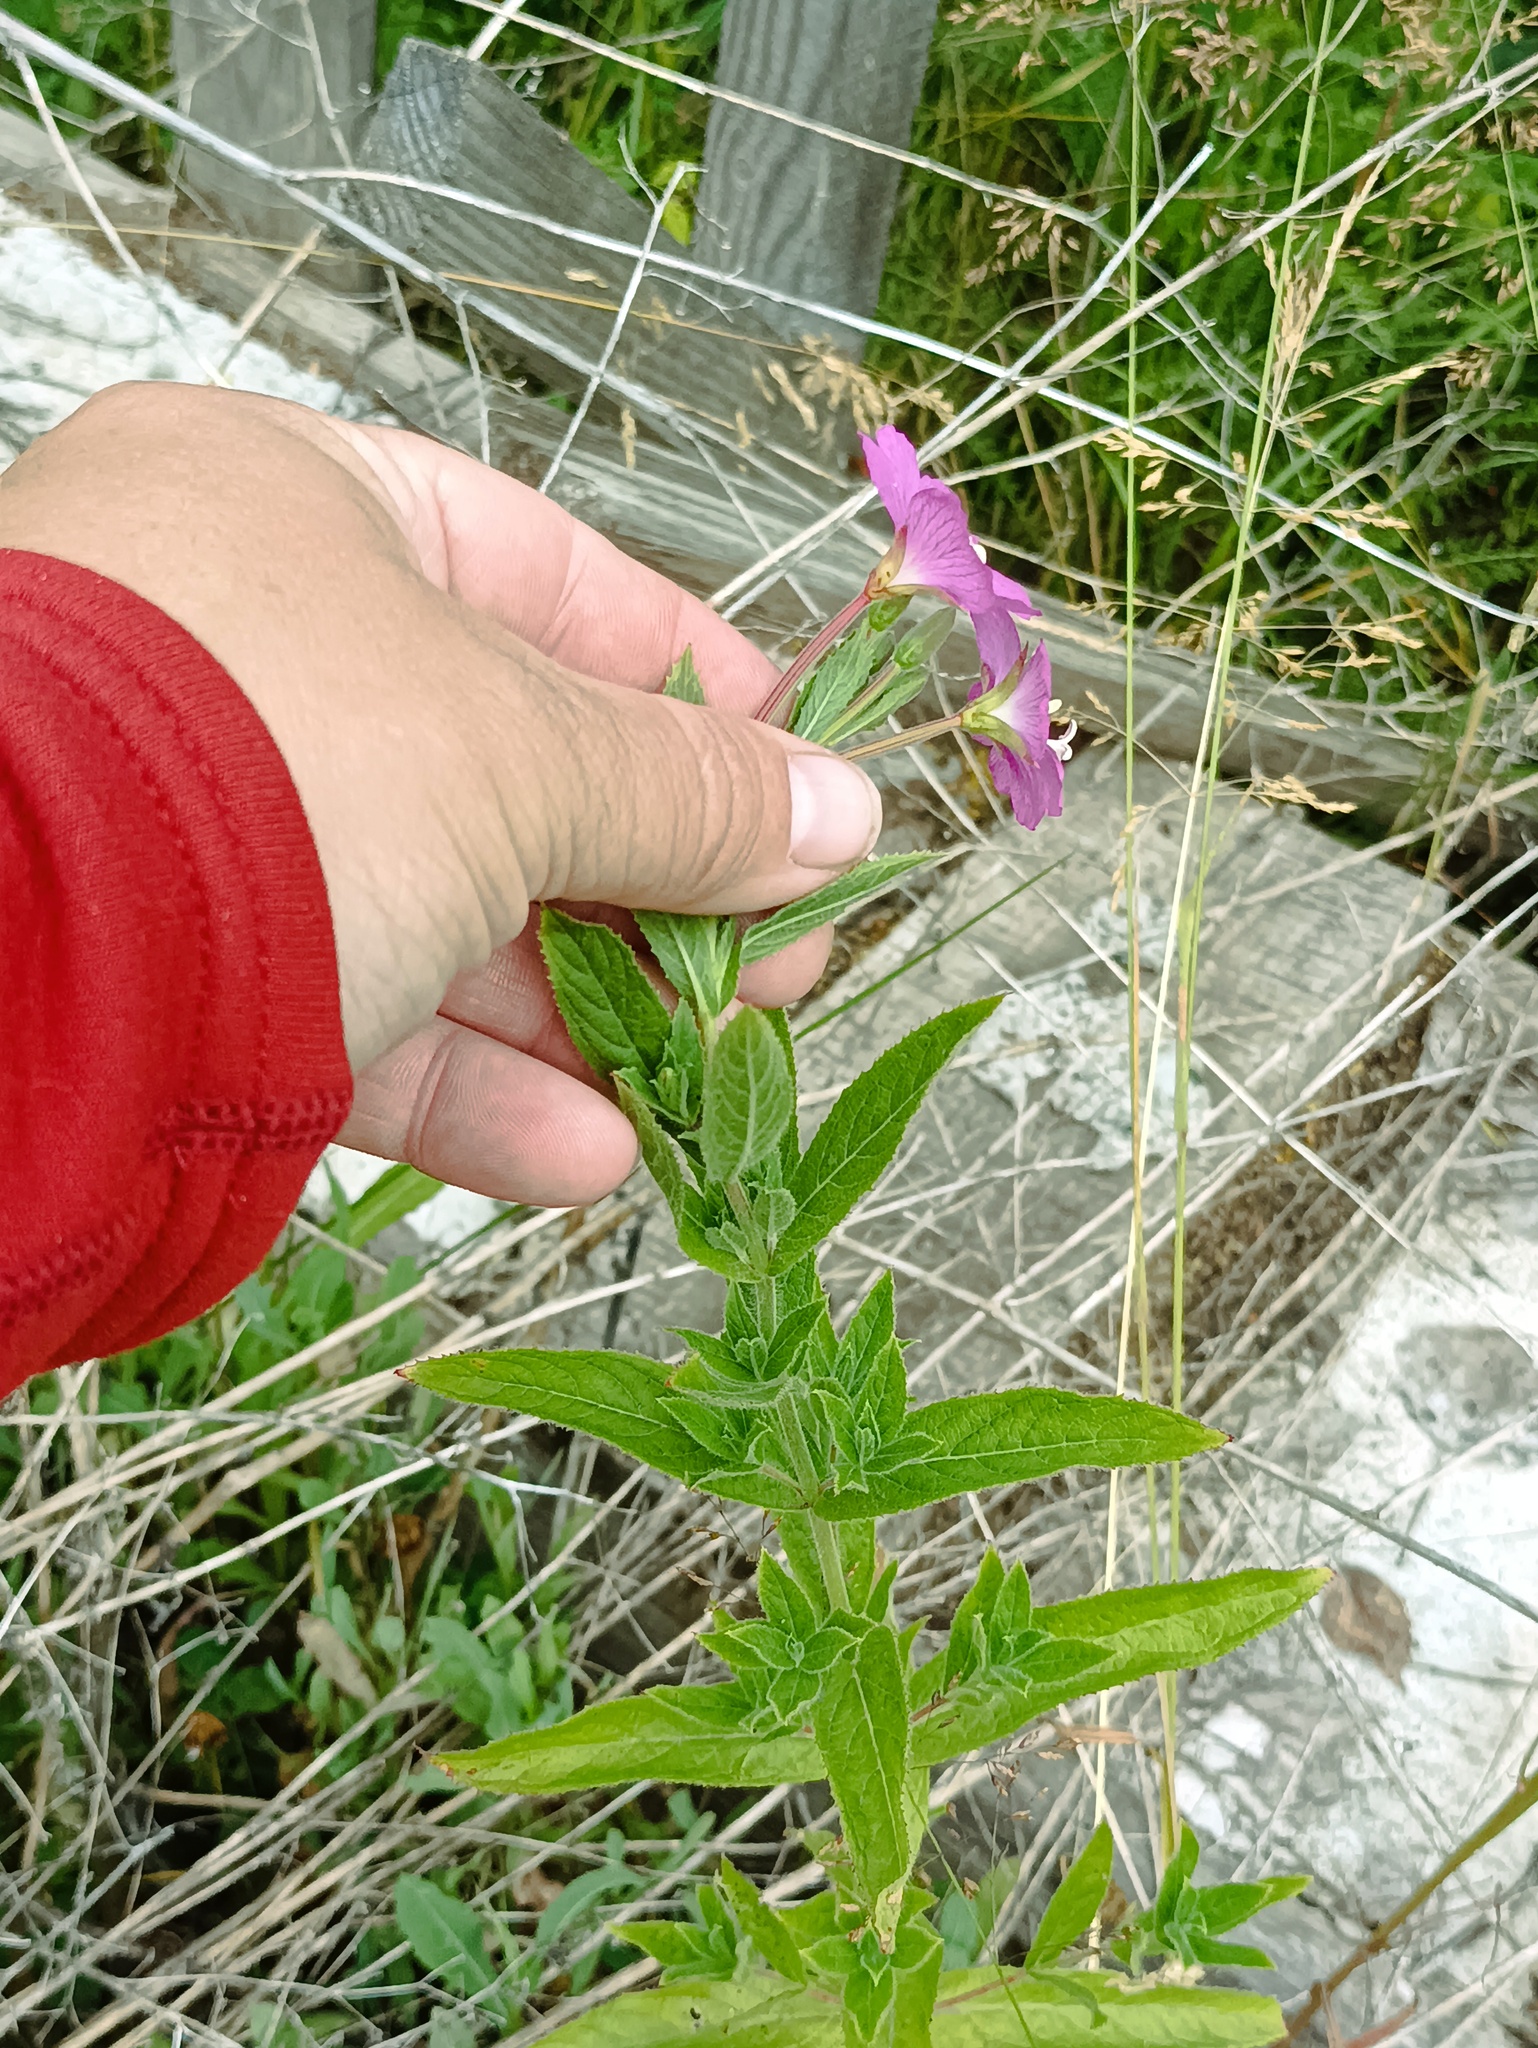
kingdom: Plantae
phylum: Tracheophyta
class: Magnoliopsida
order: Myrtales
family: Onagraceae
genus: Epilobium
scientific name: Epilobium hirsutum
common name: Great willowherb
